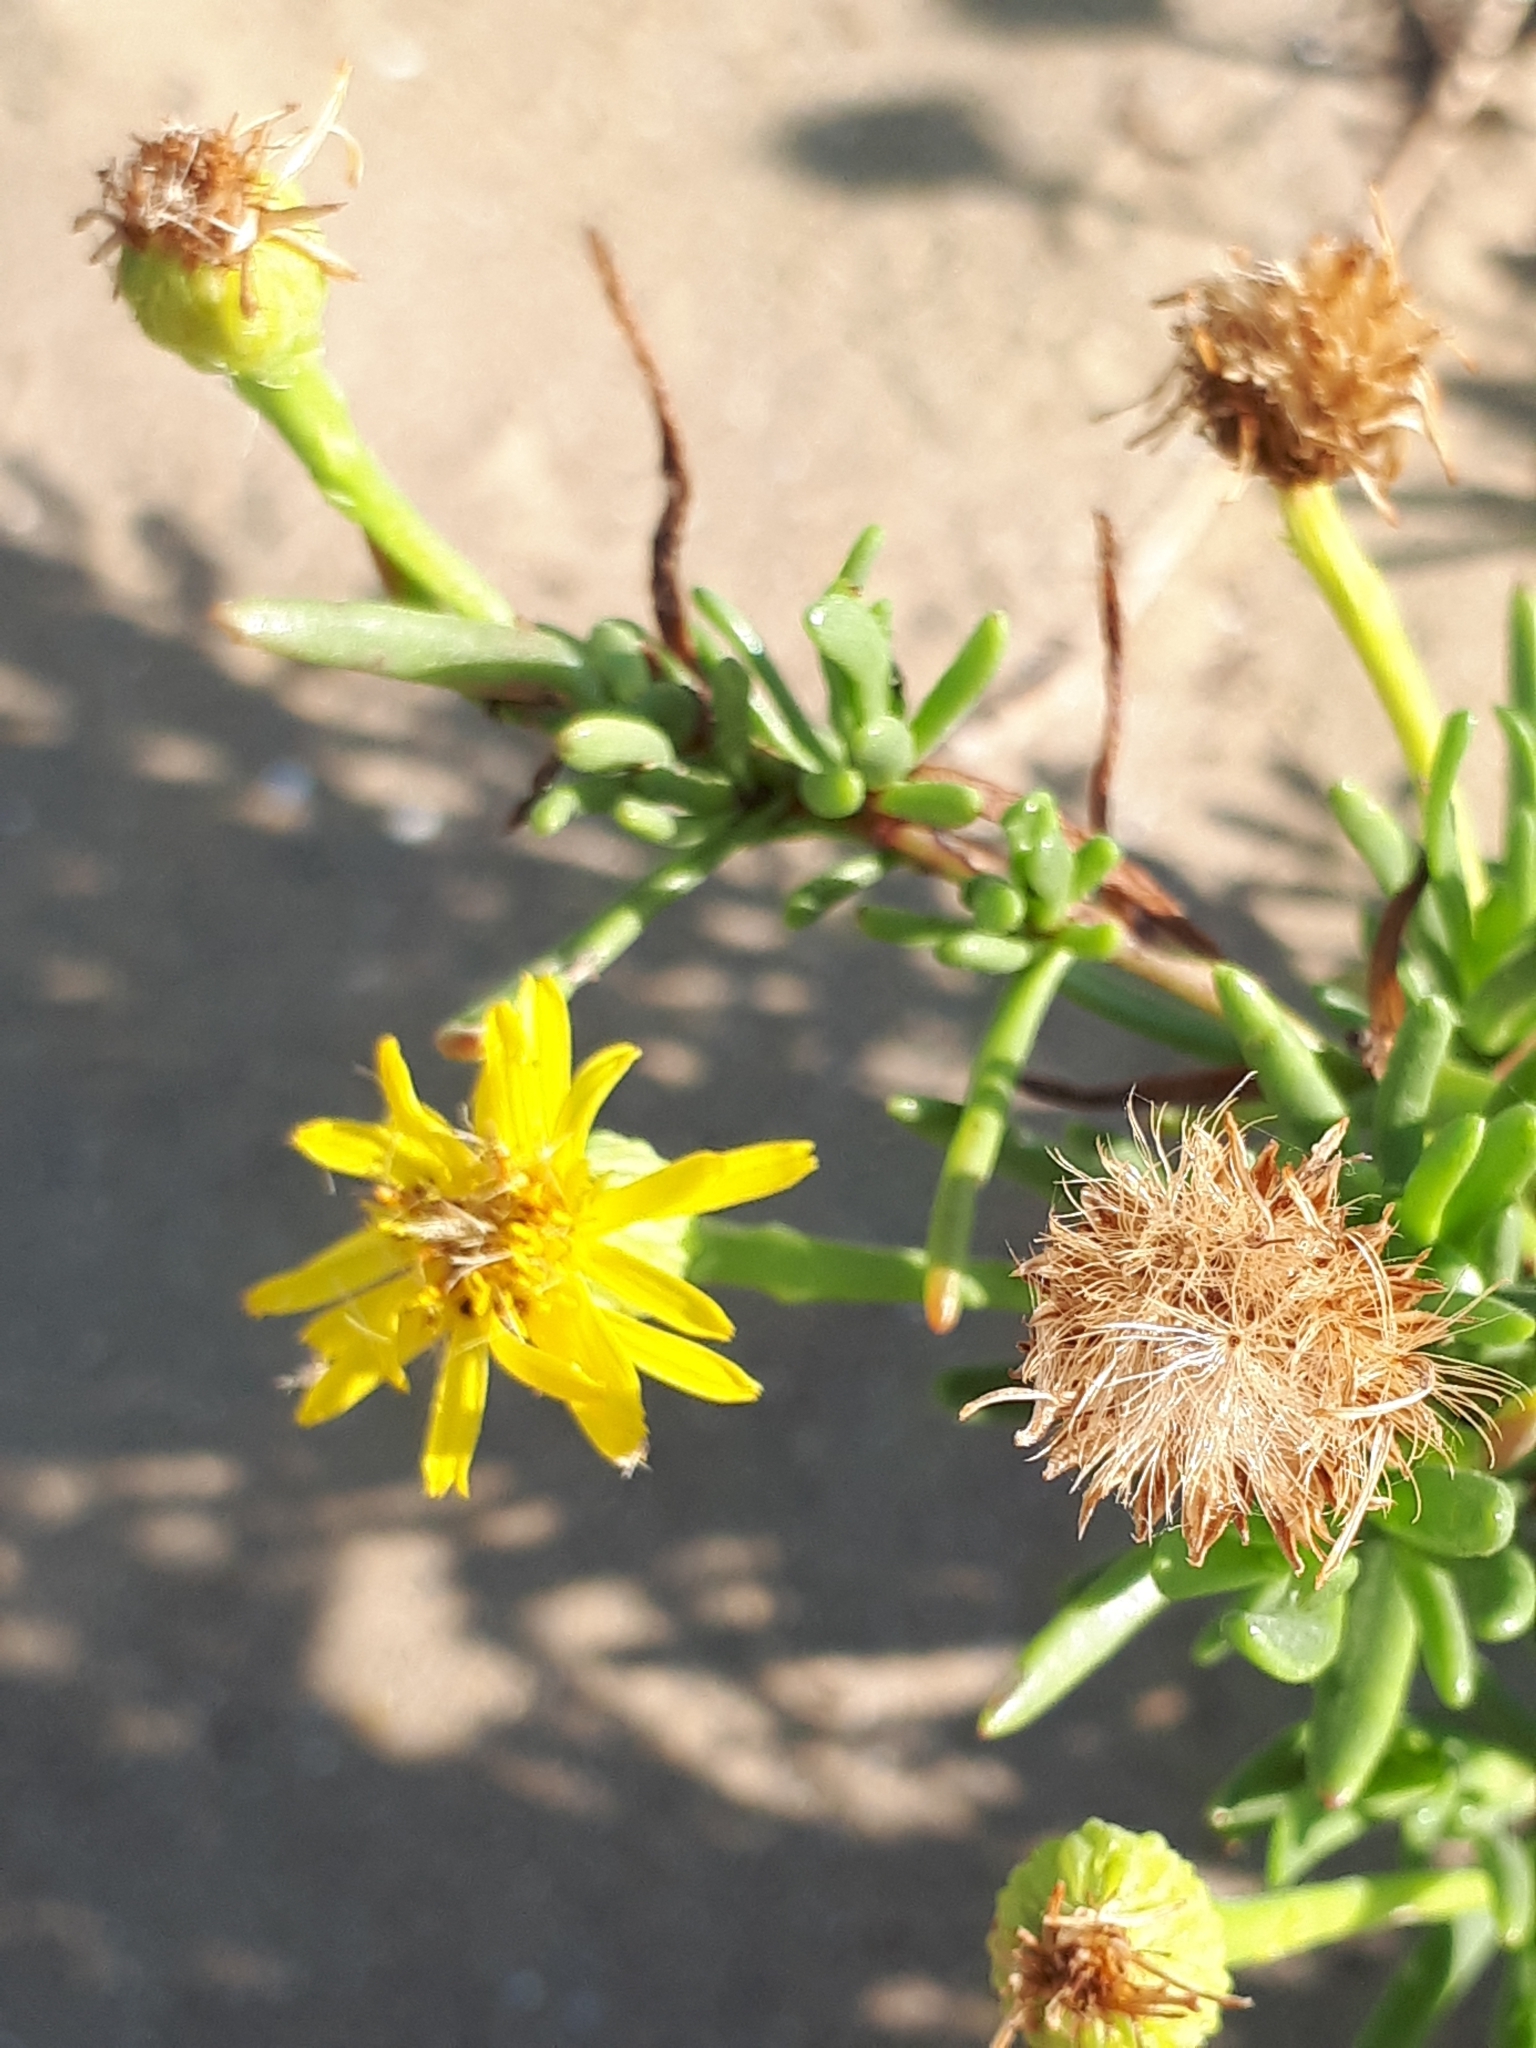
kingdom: Plantae
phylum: Tracheophyta
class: Magnoliopsida
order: Asterales
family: Asteraceae
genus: Limbarda
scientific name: Limbarda crithmoides
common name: Golden samphire
